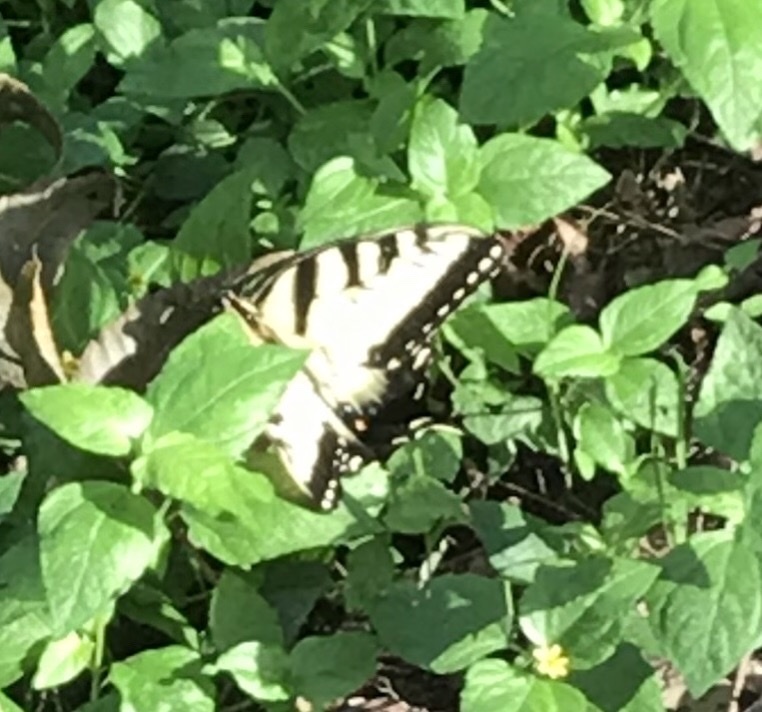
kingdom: Animalia
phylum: Arthropoda
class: Insecta
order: Lepidoptera
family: Papilionidae
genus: Papilio
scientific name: Papilio glaucus
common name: Tiger swallowtail
